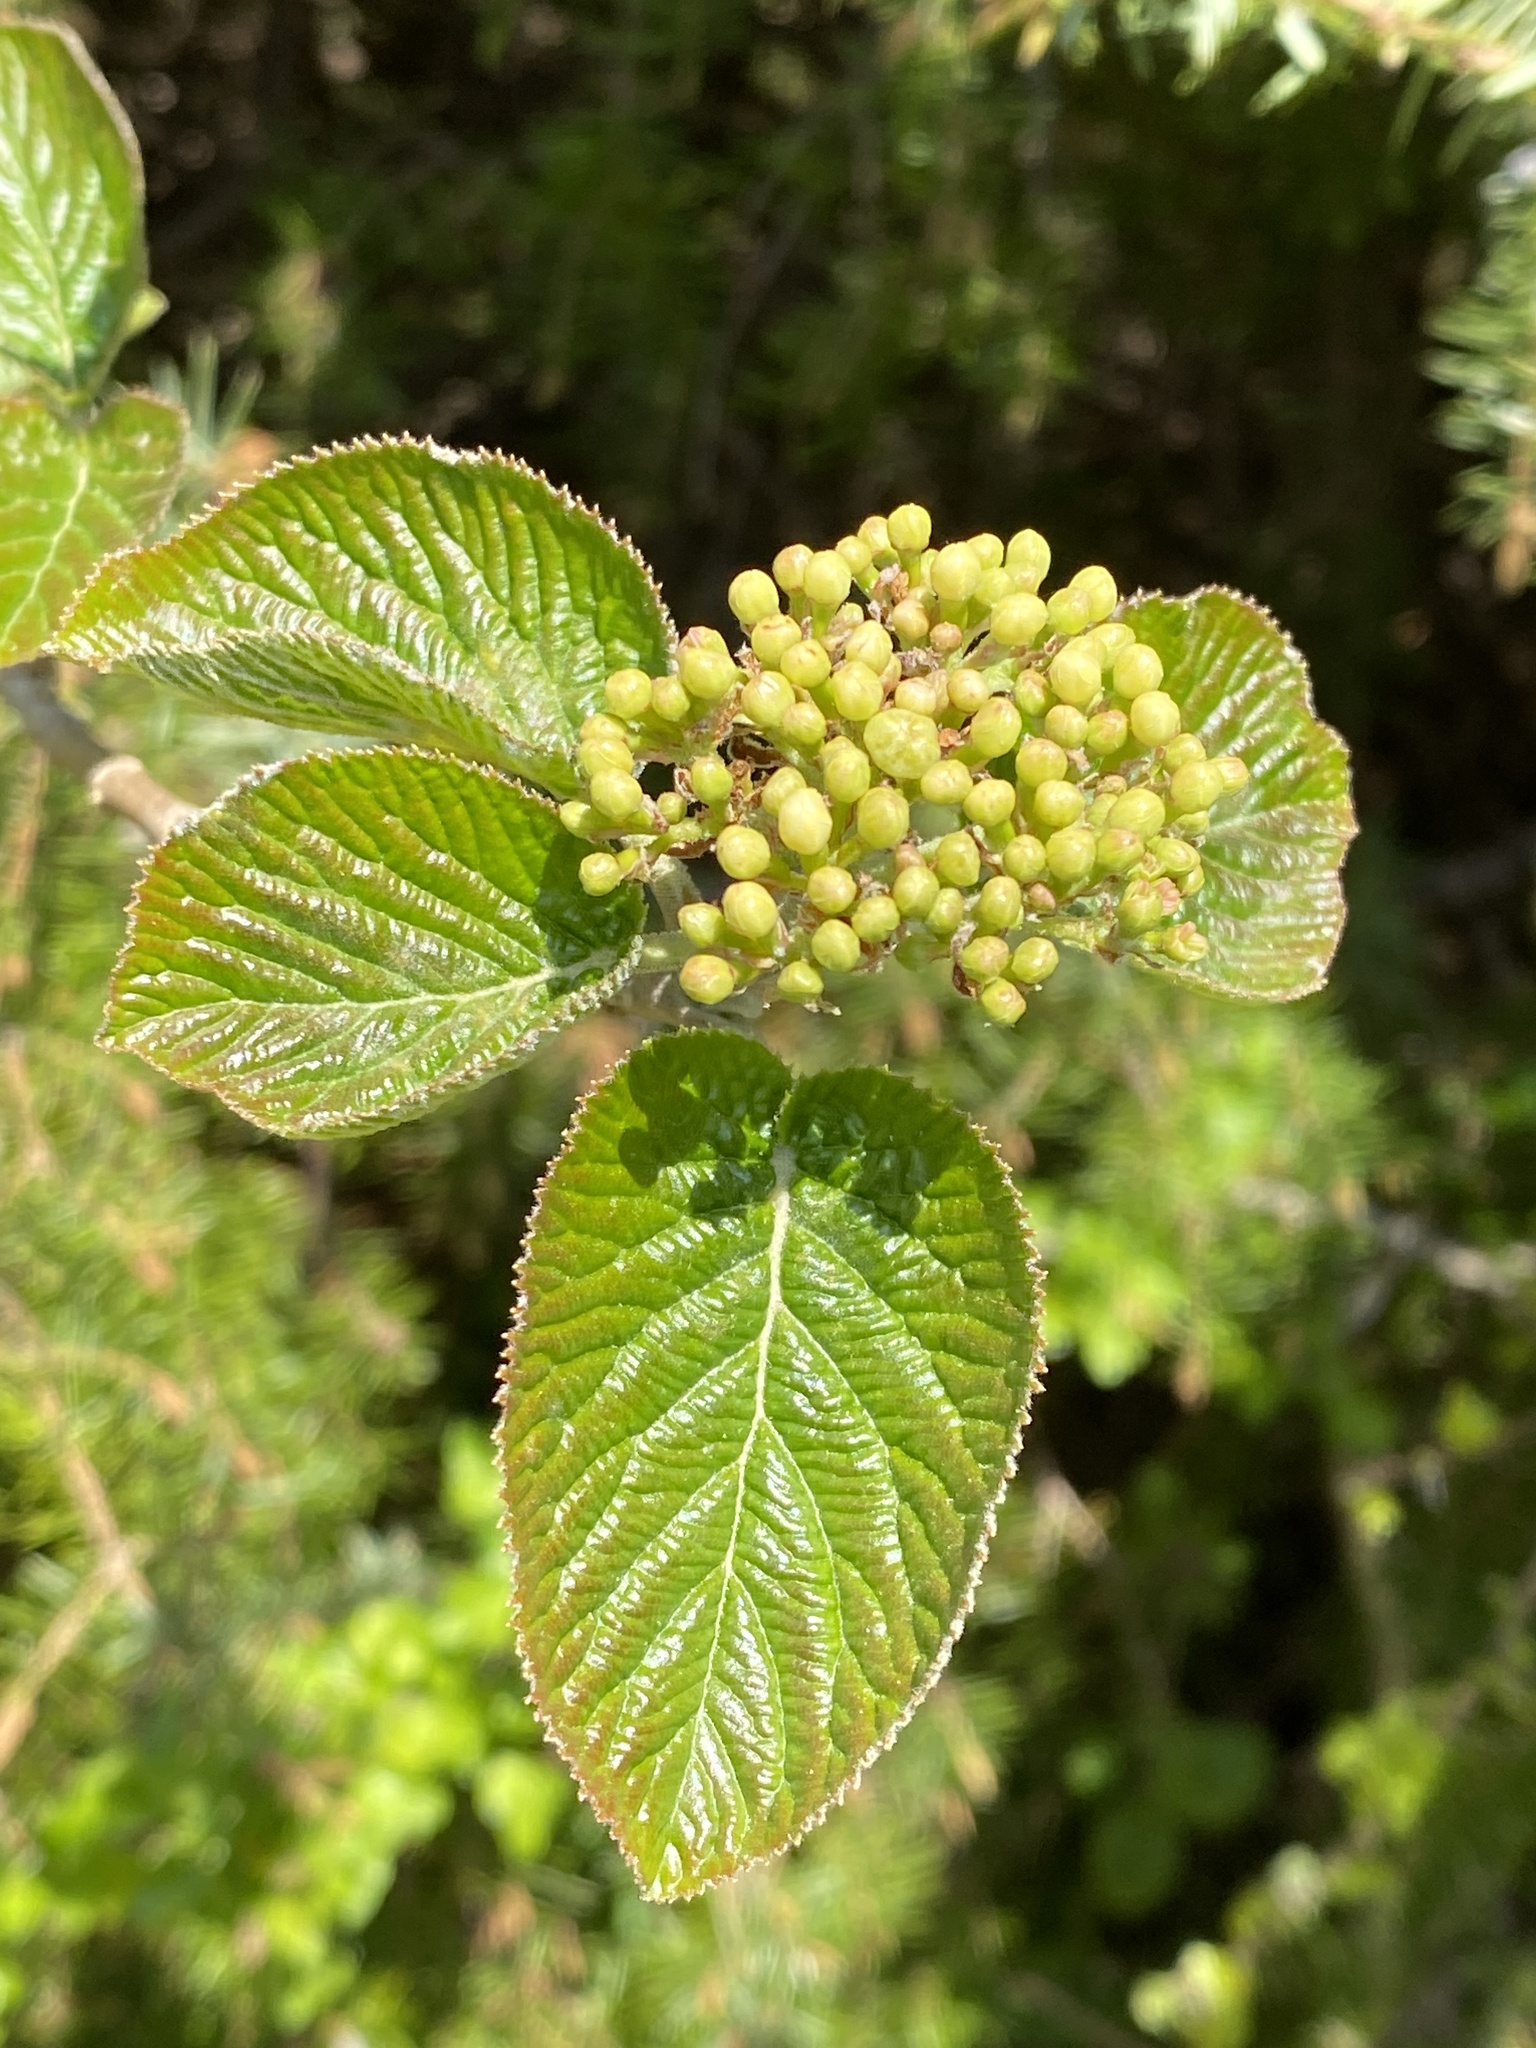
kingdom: Plantae
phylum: Tracheophyta
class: Magnoliopsida
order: Dipsacales
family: Viburnaceae
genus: Viburnum
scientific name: Viburnum lantana
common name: Wayfaring tree
